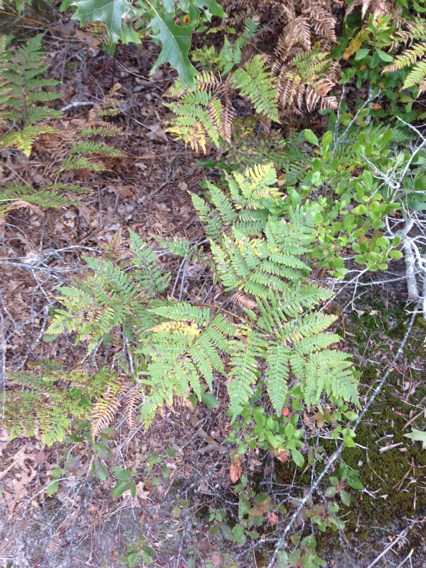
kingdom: Plantae
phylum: Tracheophyta
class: Polypodiopsida
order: Polypodiales
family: Dennstaedtiaceae
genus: Pteridium
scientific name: Pteridium aquilinum
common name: Bracken
